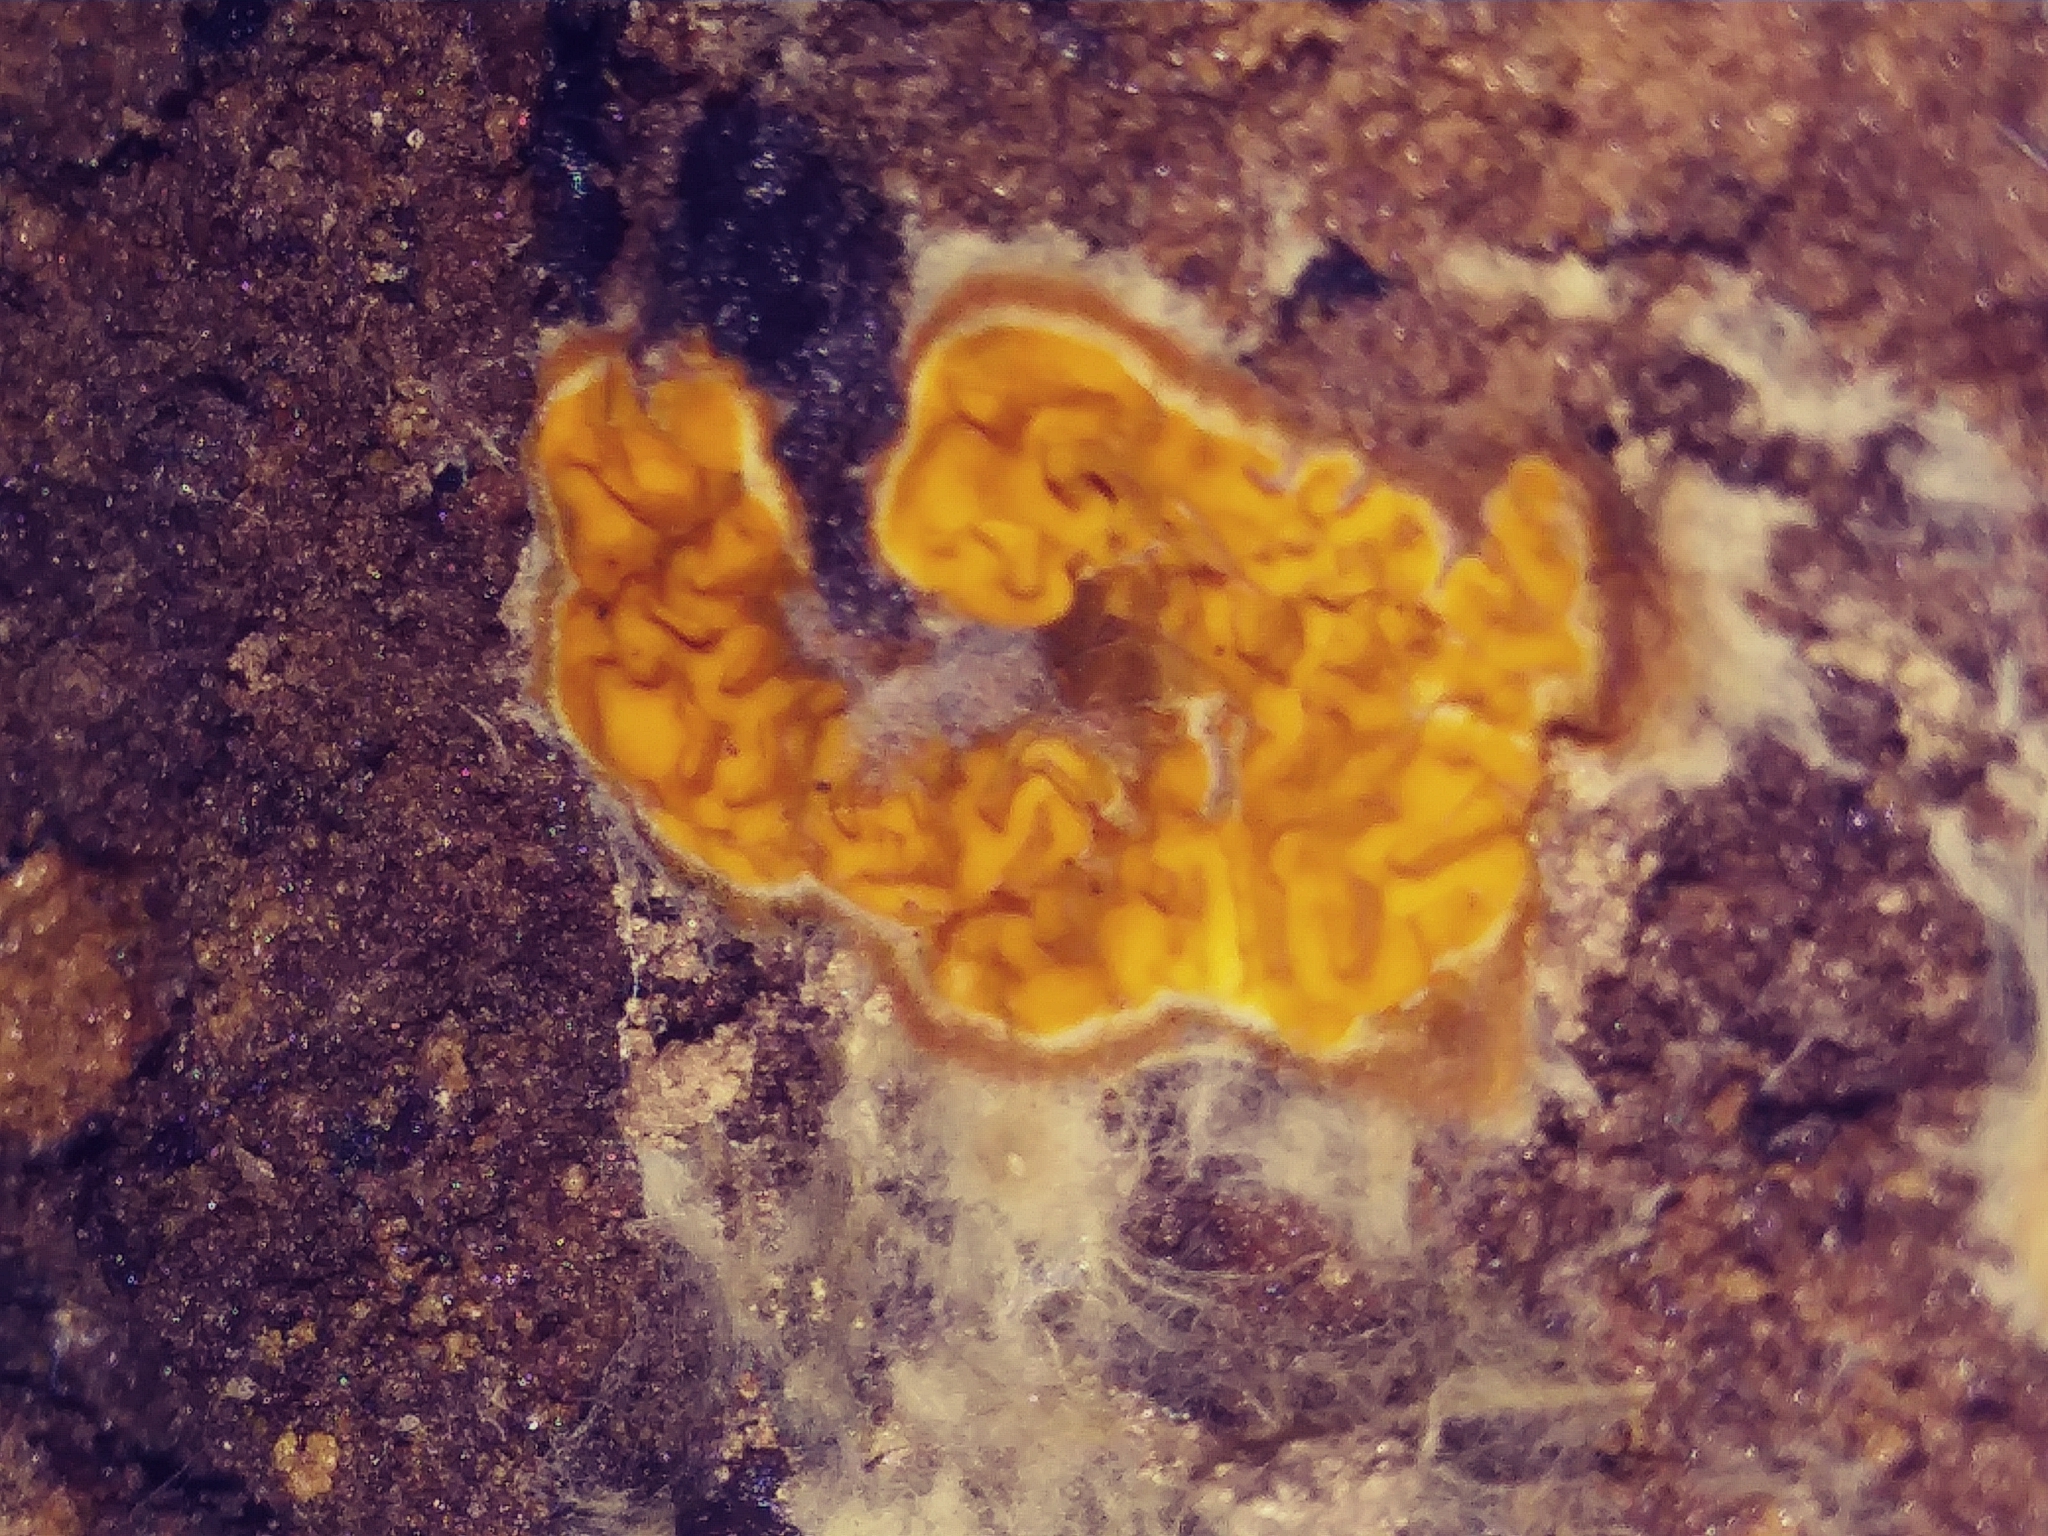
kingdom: Fungi
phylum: Basidiomycota
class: Agaricomycetes
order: Boletales
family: Serpulaceae
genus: Serpula
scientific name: Serpula himantioides
